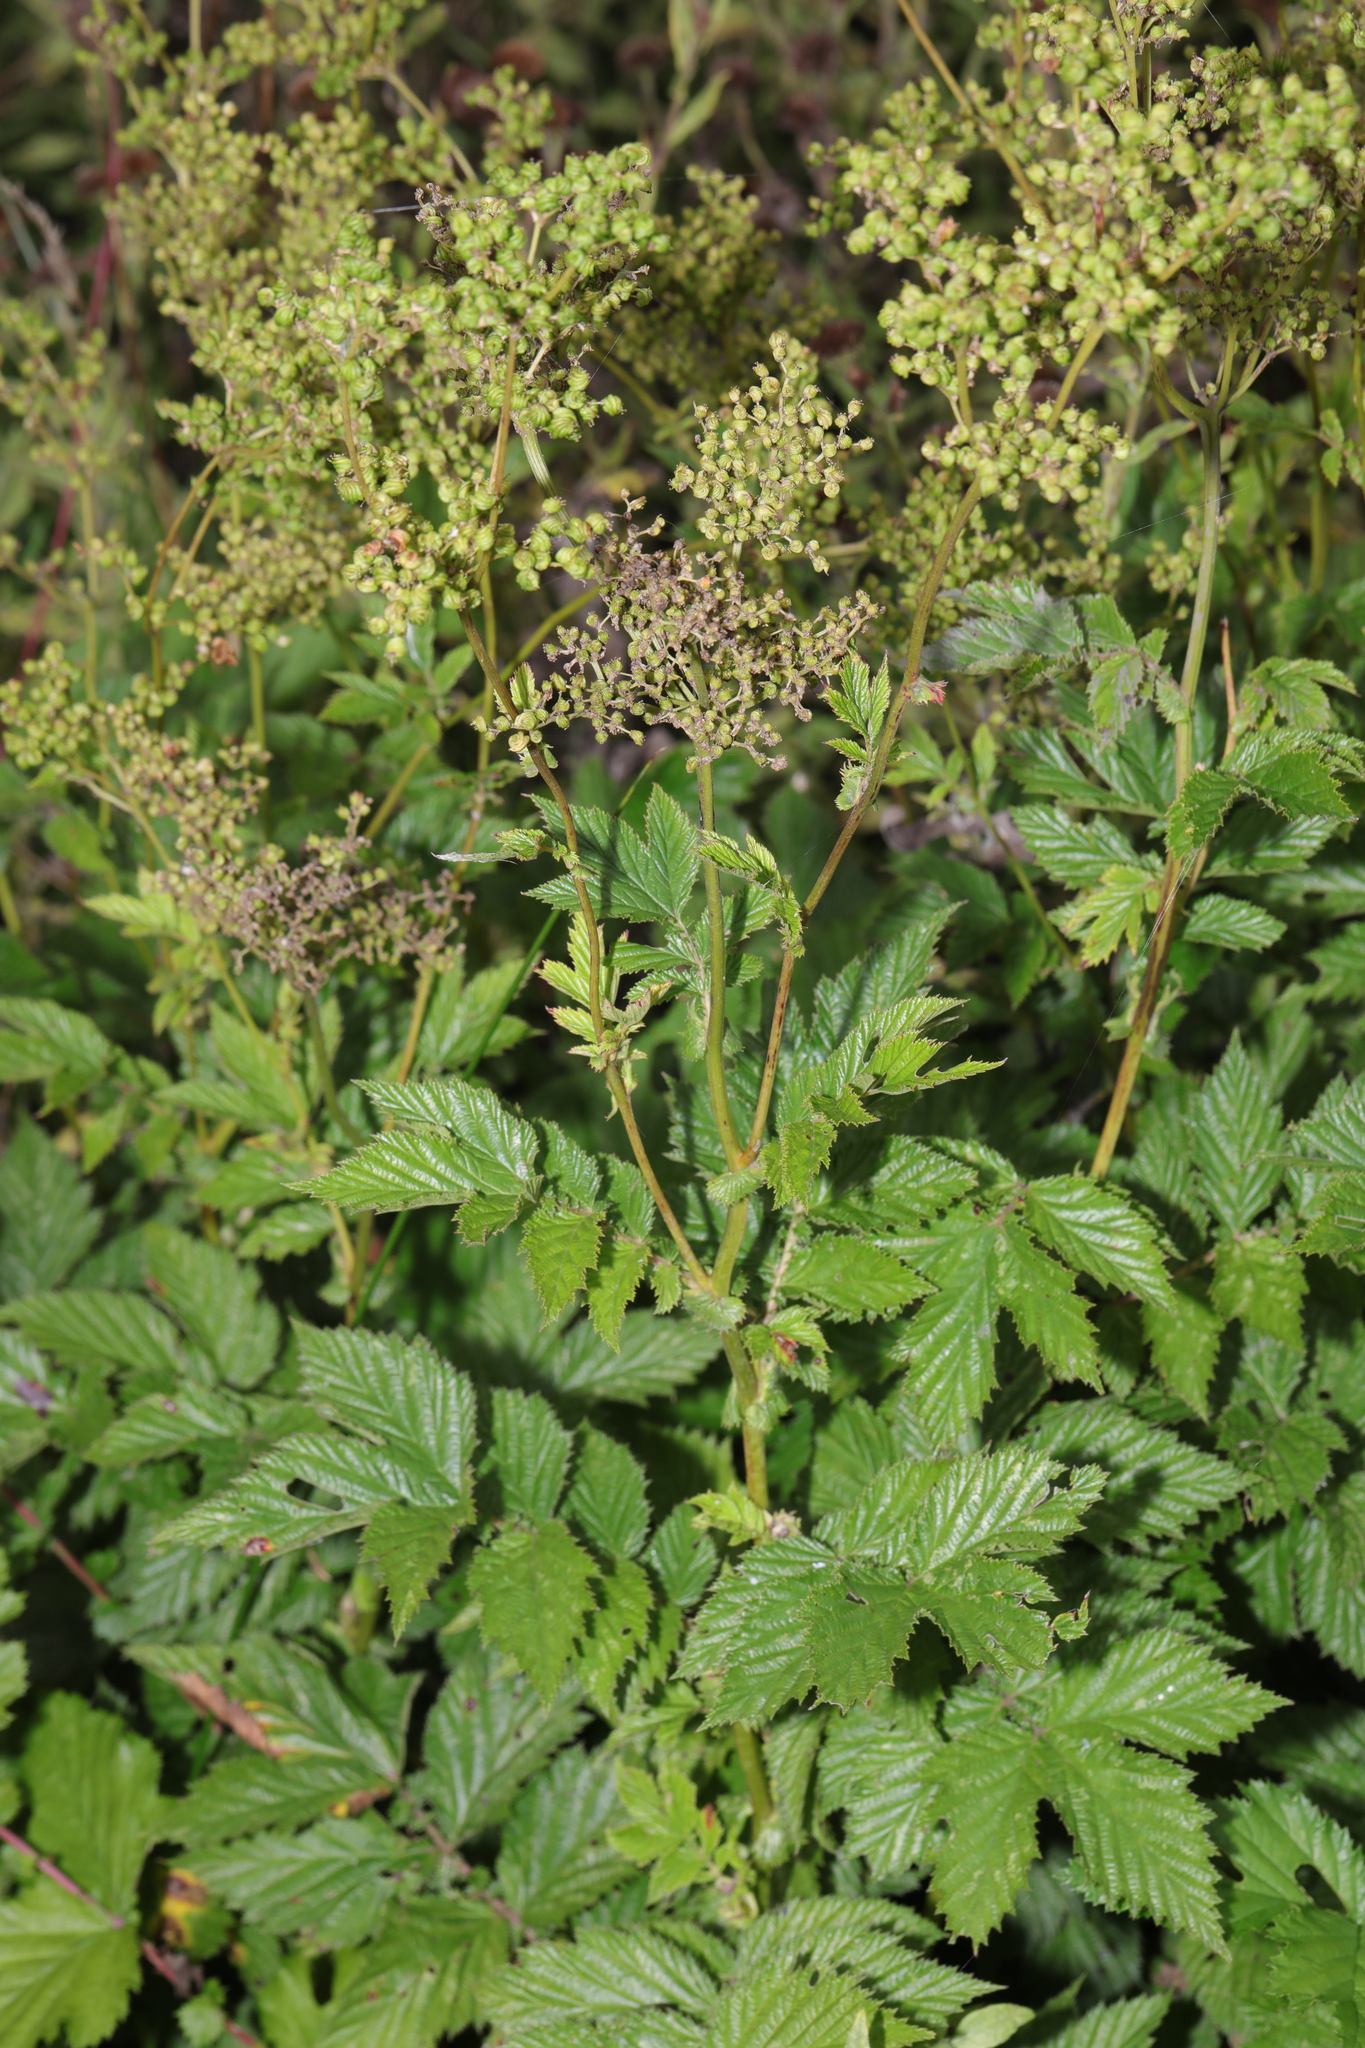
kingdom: Plantae
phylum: Tracheophyta
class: Magnoliopsida
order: Rosales
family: Rosaceae
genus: Filipendula
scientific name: Filipendula ulmaria
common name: Meadowsweet
